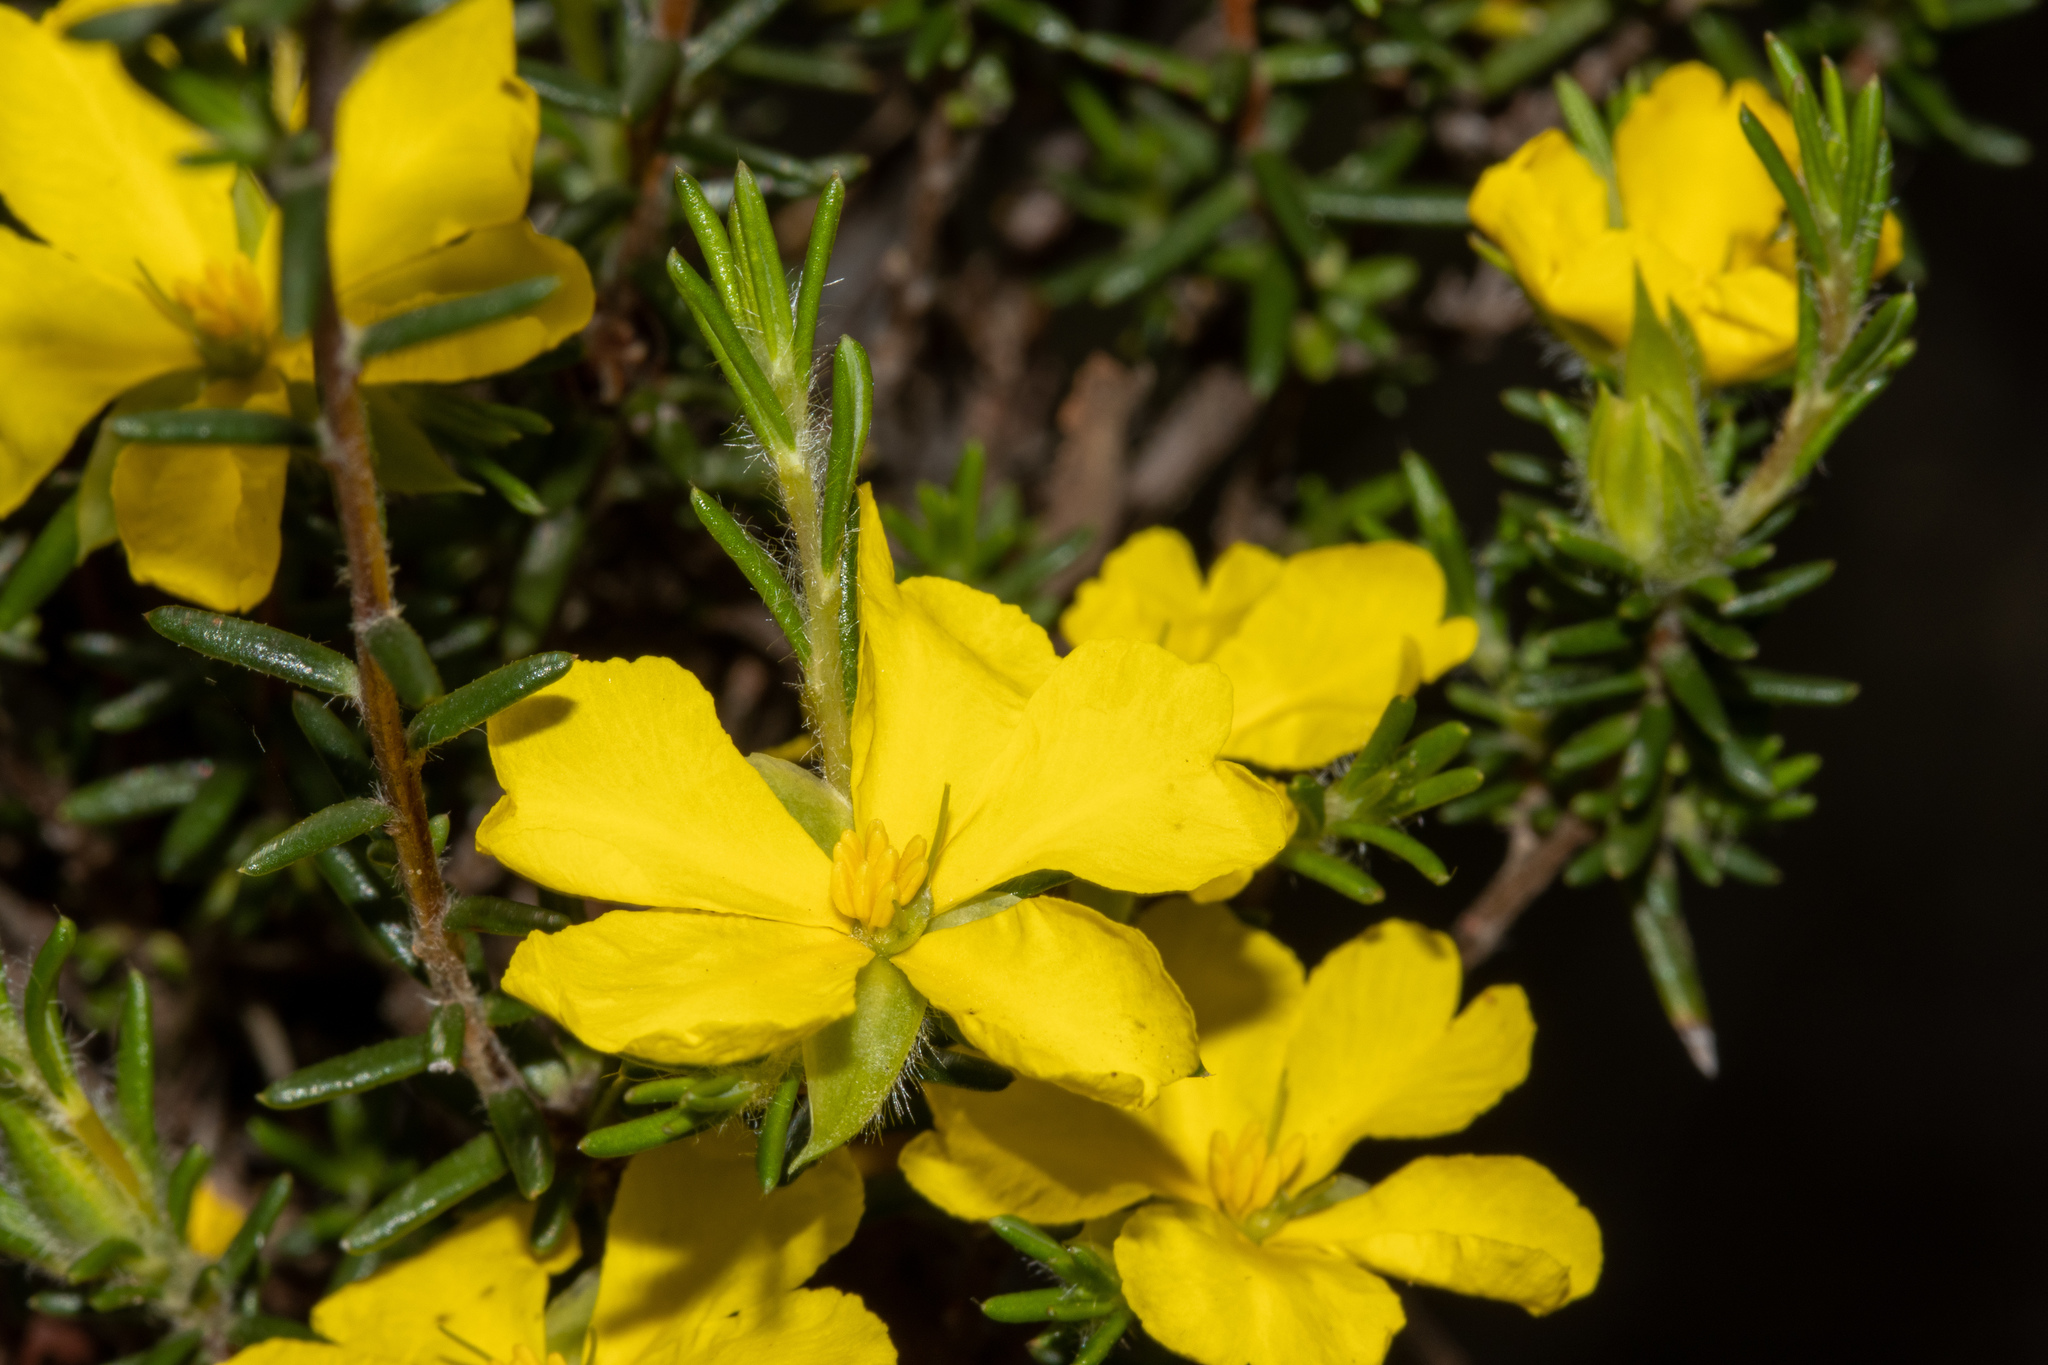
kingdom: Plantae
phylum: Tracheophyta
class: Magnoliopsida
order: Dilleniales
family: Dilleniaceae
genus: Hibbertia
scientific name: Hibbertia paeninsularis
